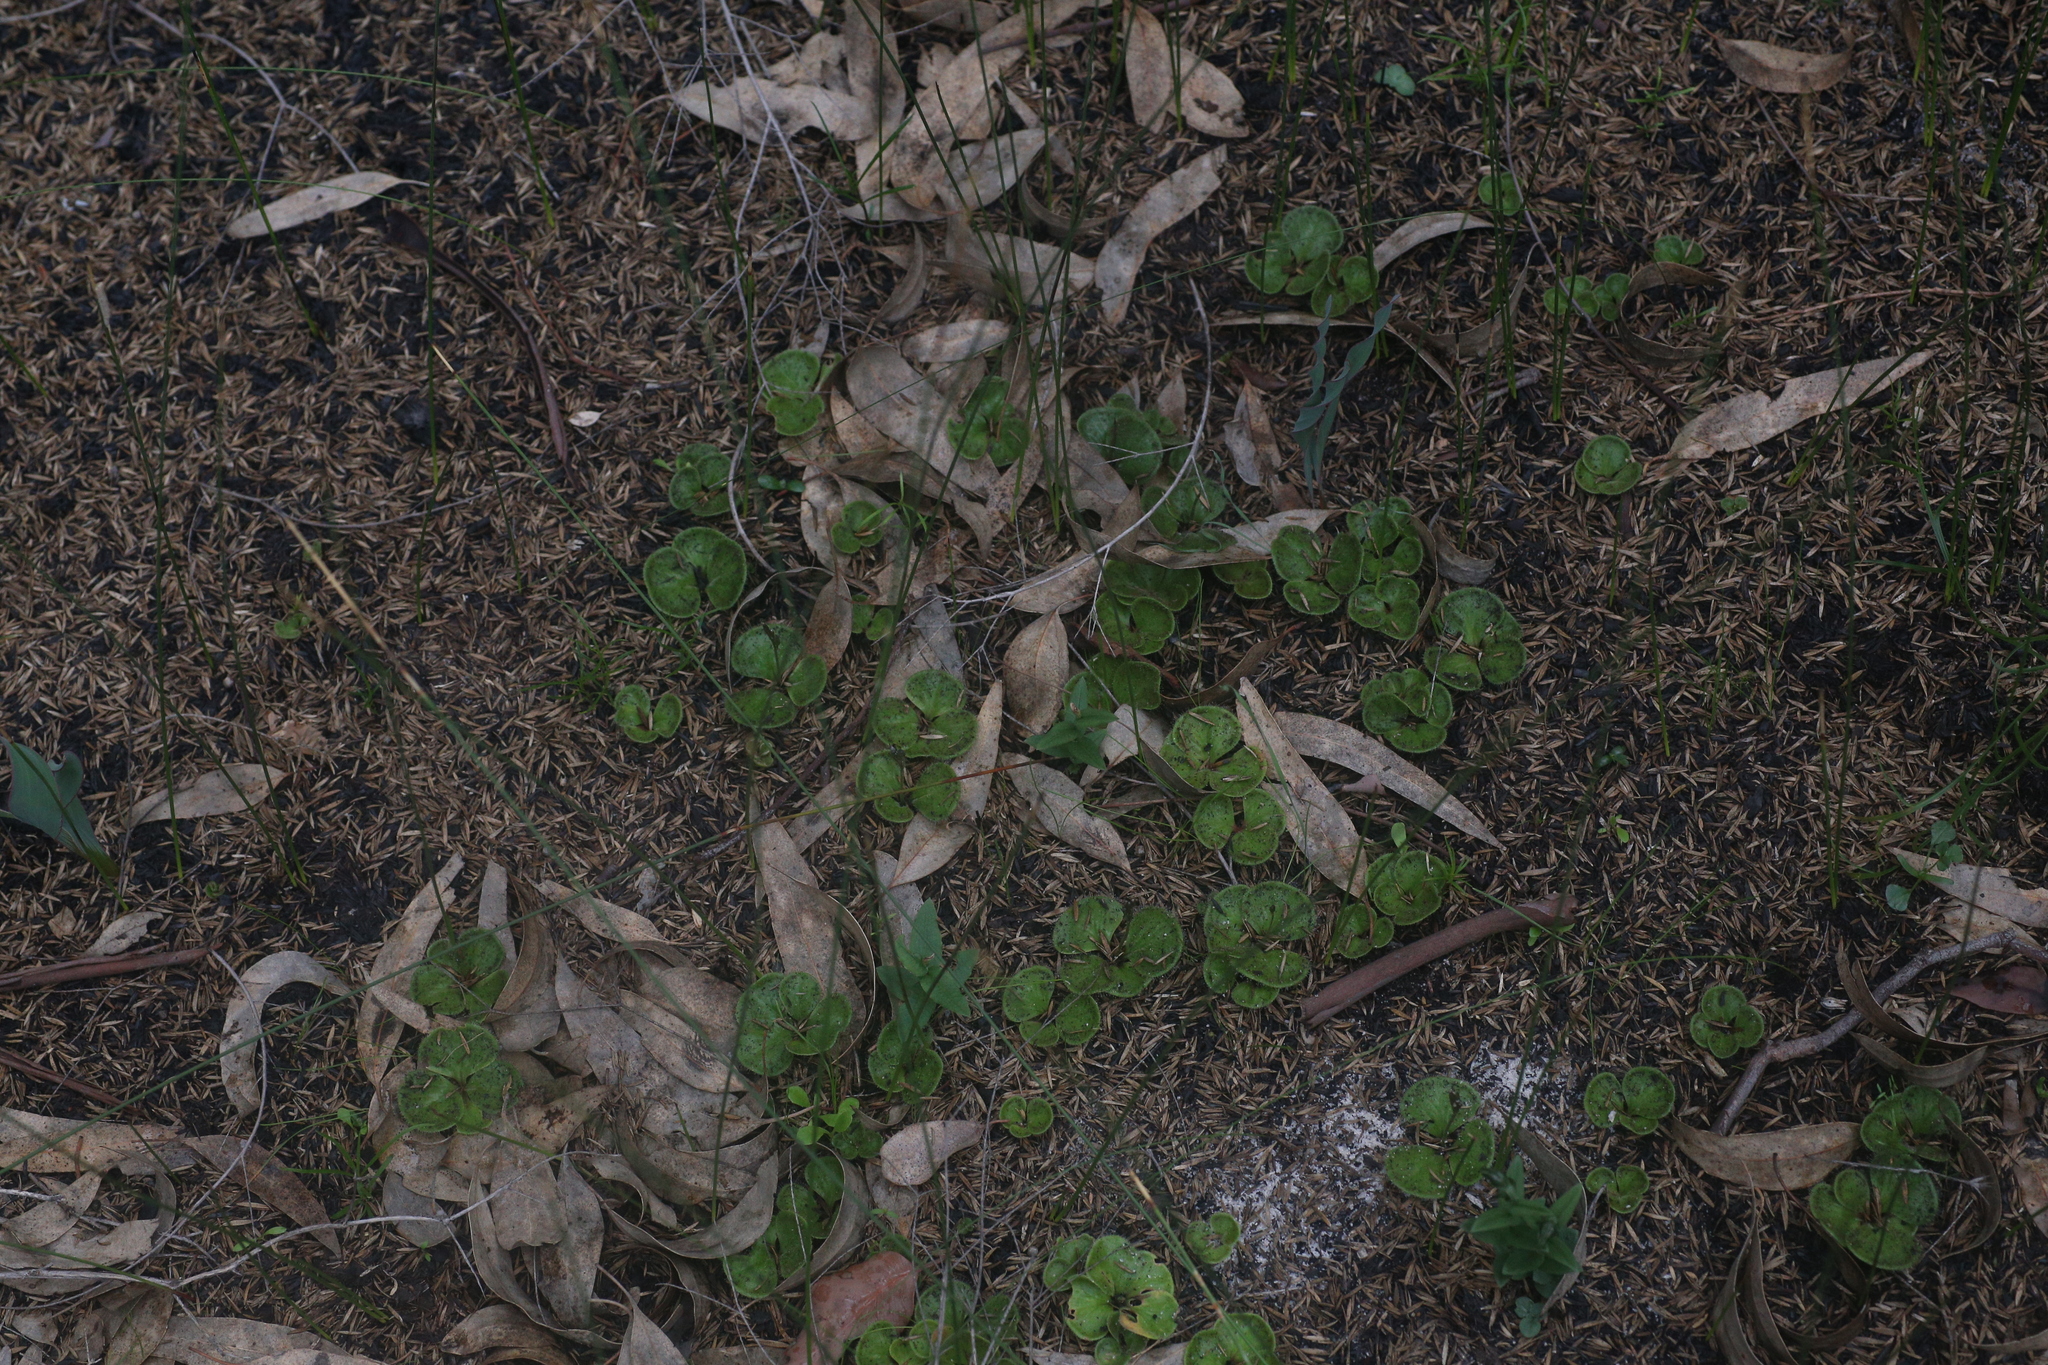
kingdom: Plantae
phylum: Tracheophyta
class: Magnoliopsida
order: Caryophyllales
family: Droseraceae
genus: Drosera
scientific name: Drosera erythrorhiza
